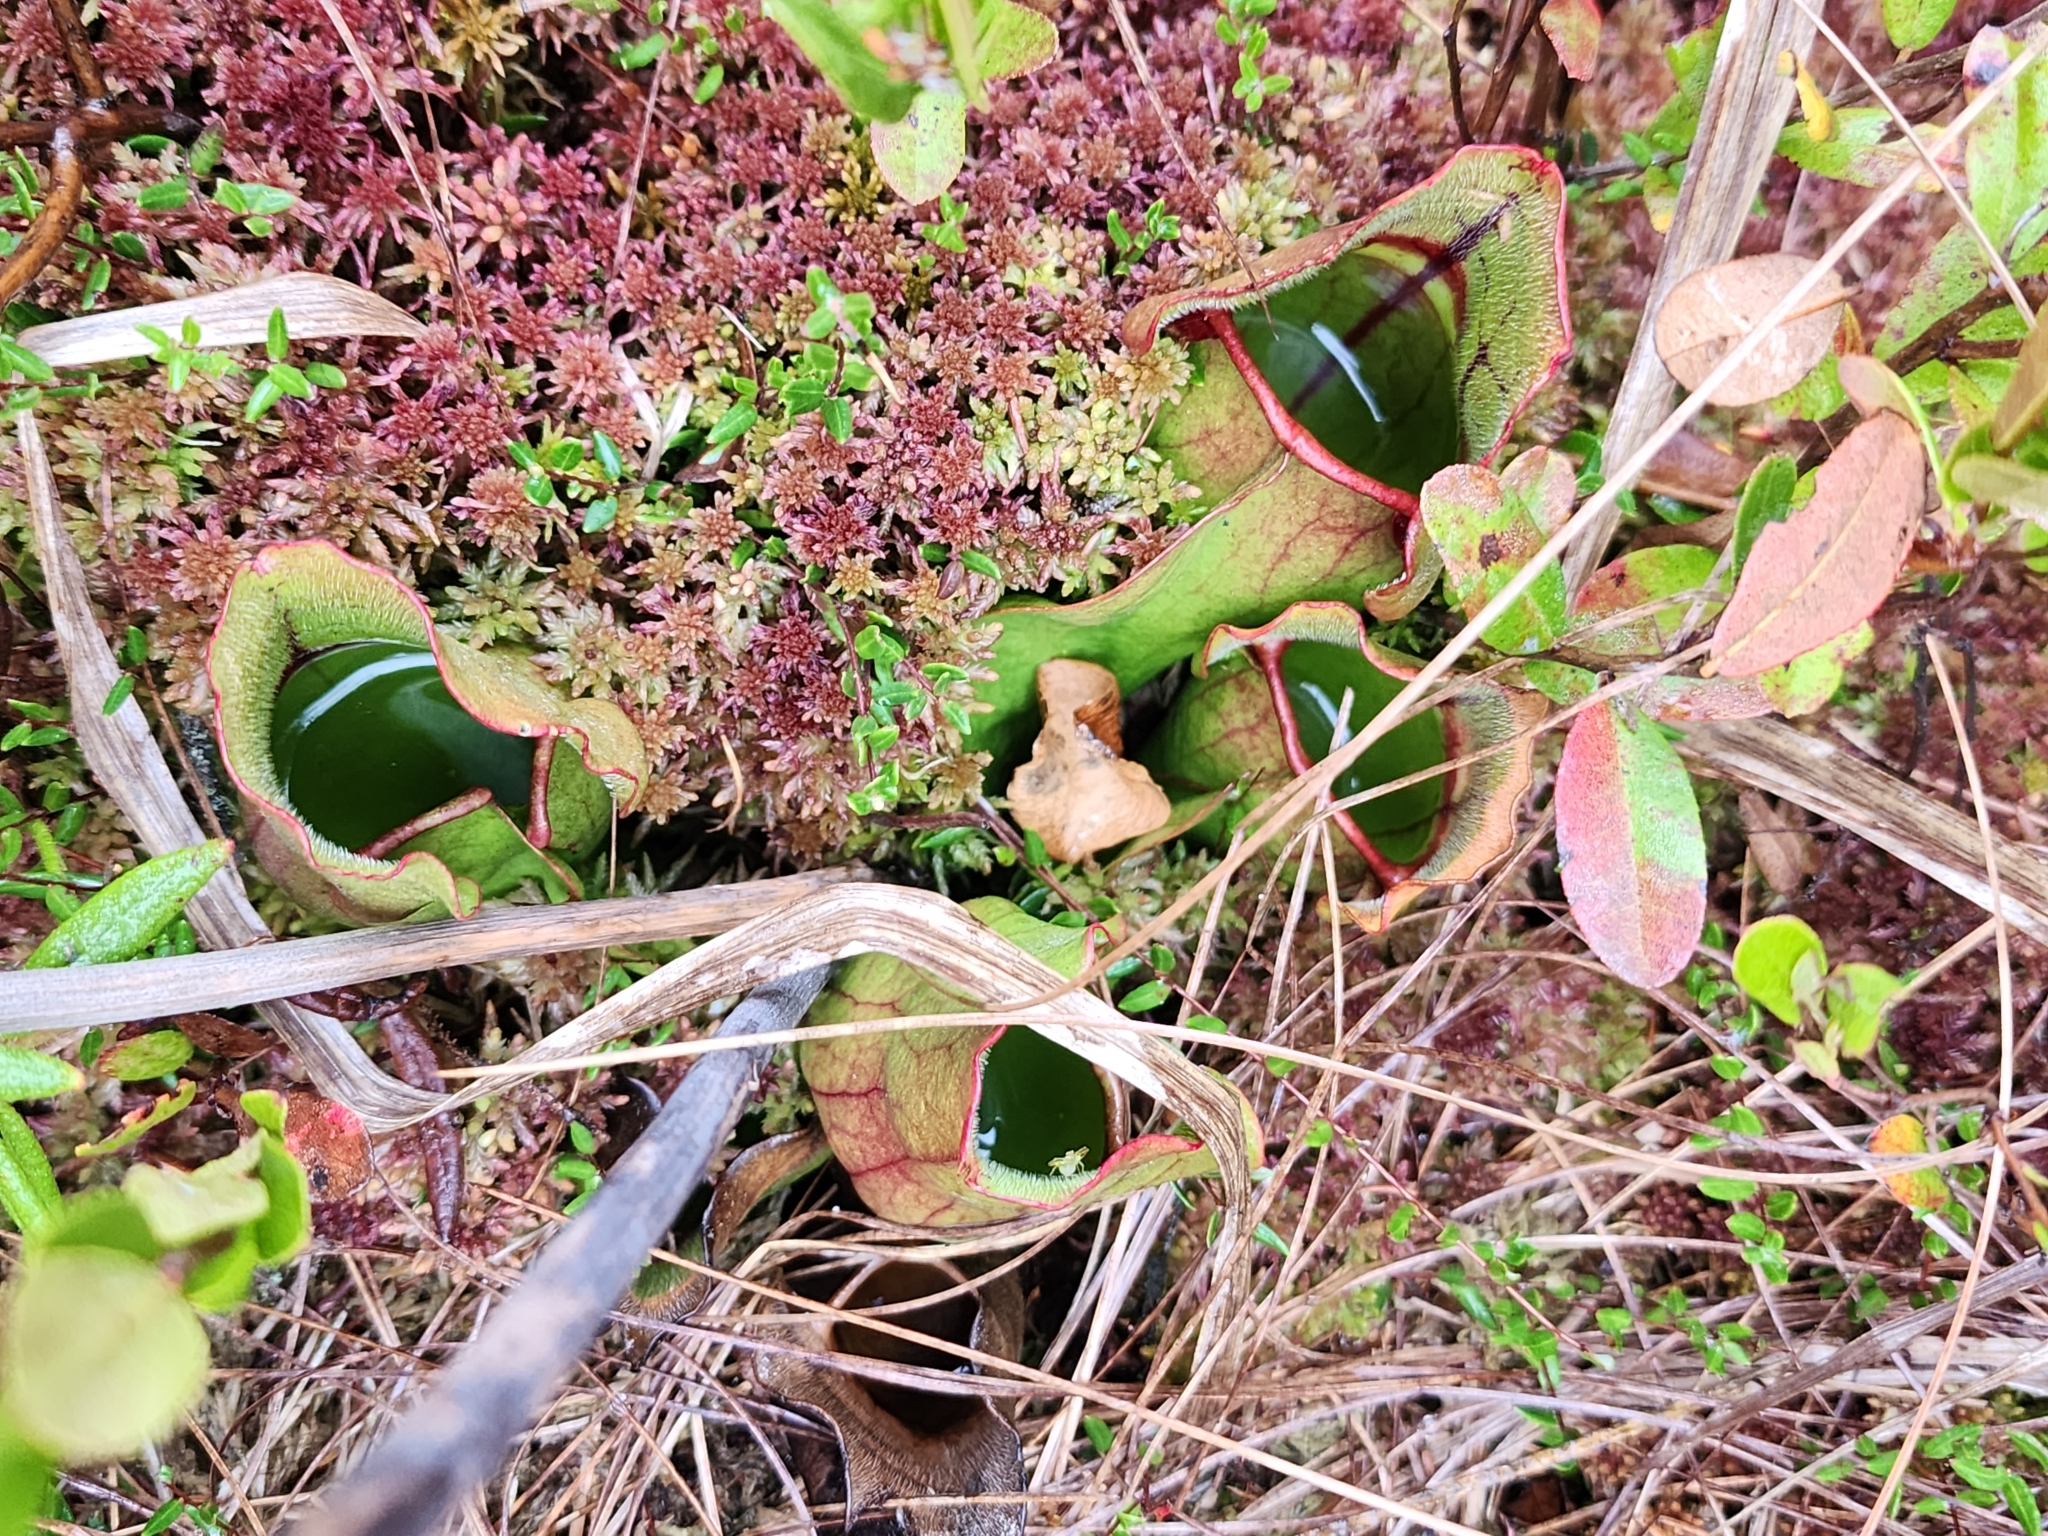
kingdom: Plantae
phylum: Tracheophyta
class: Magnoliopsida
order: Ericales
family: Sarraceniaceae
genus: Sarracenia
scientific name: Sarracenia purpurea
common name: Pitcherplant
